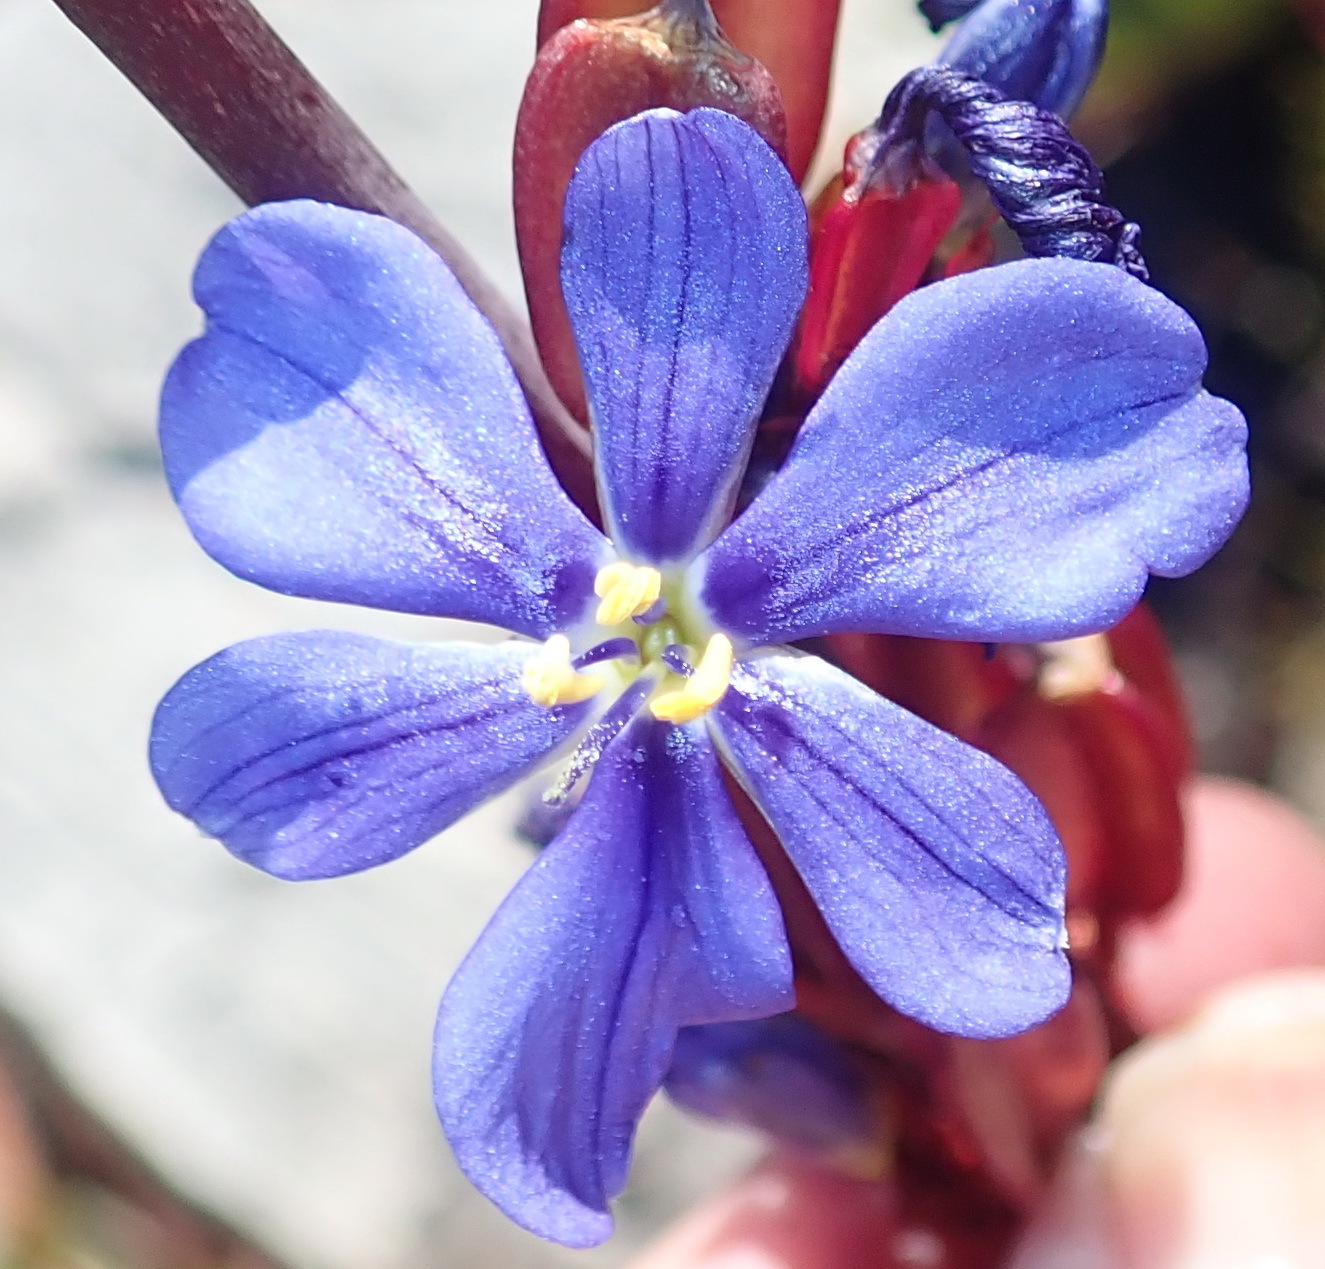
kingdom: Plantae
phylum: Tracheophyta
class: Liliopsida
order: Asparagales
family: Iridaceae
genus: Aristea
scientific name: Aristea bakeri
